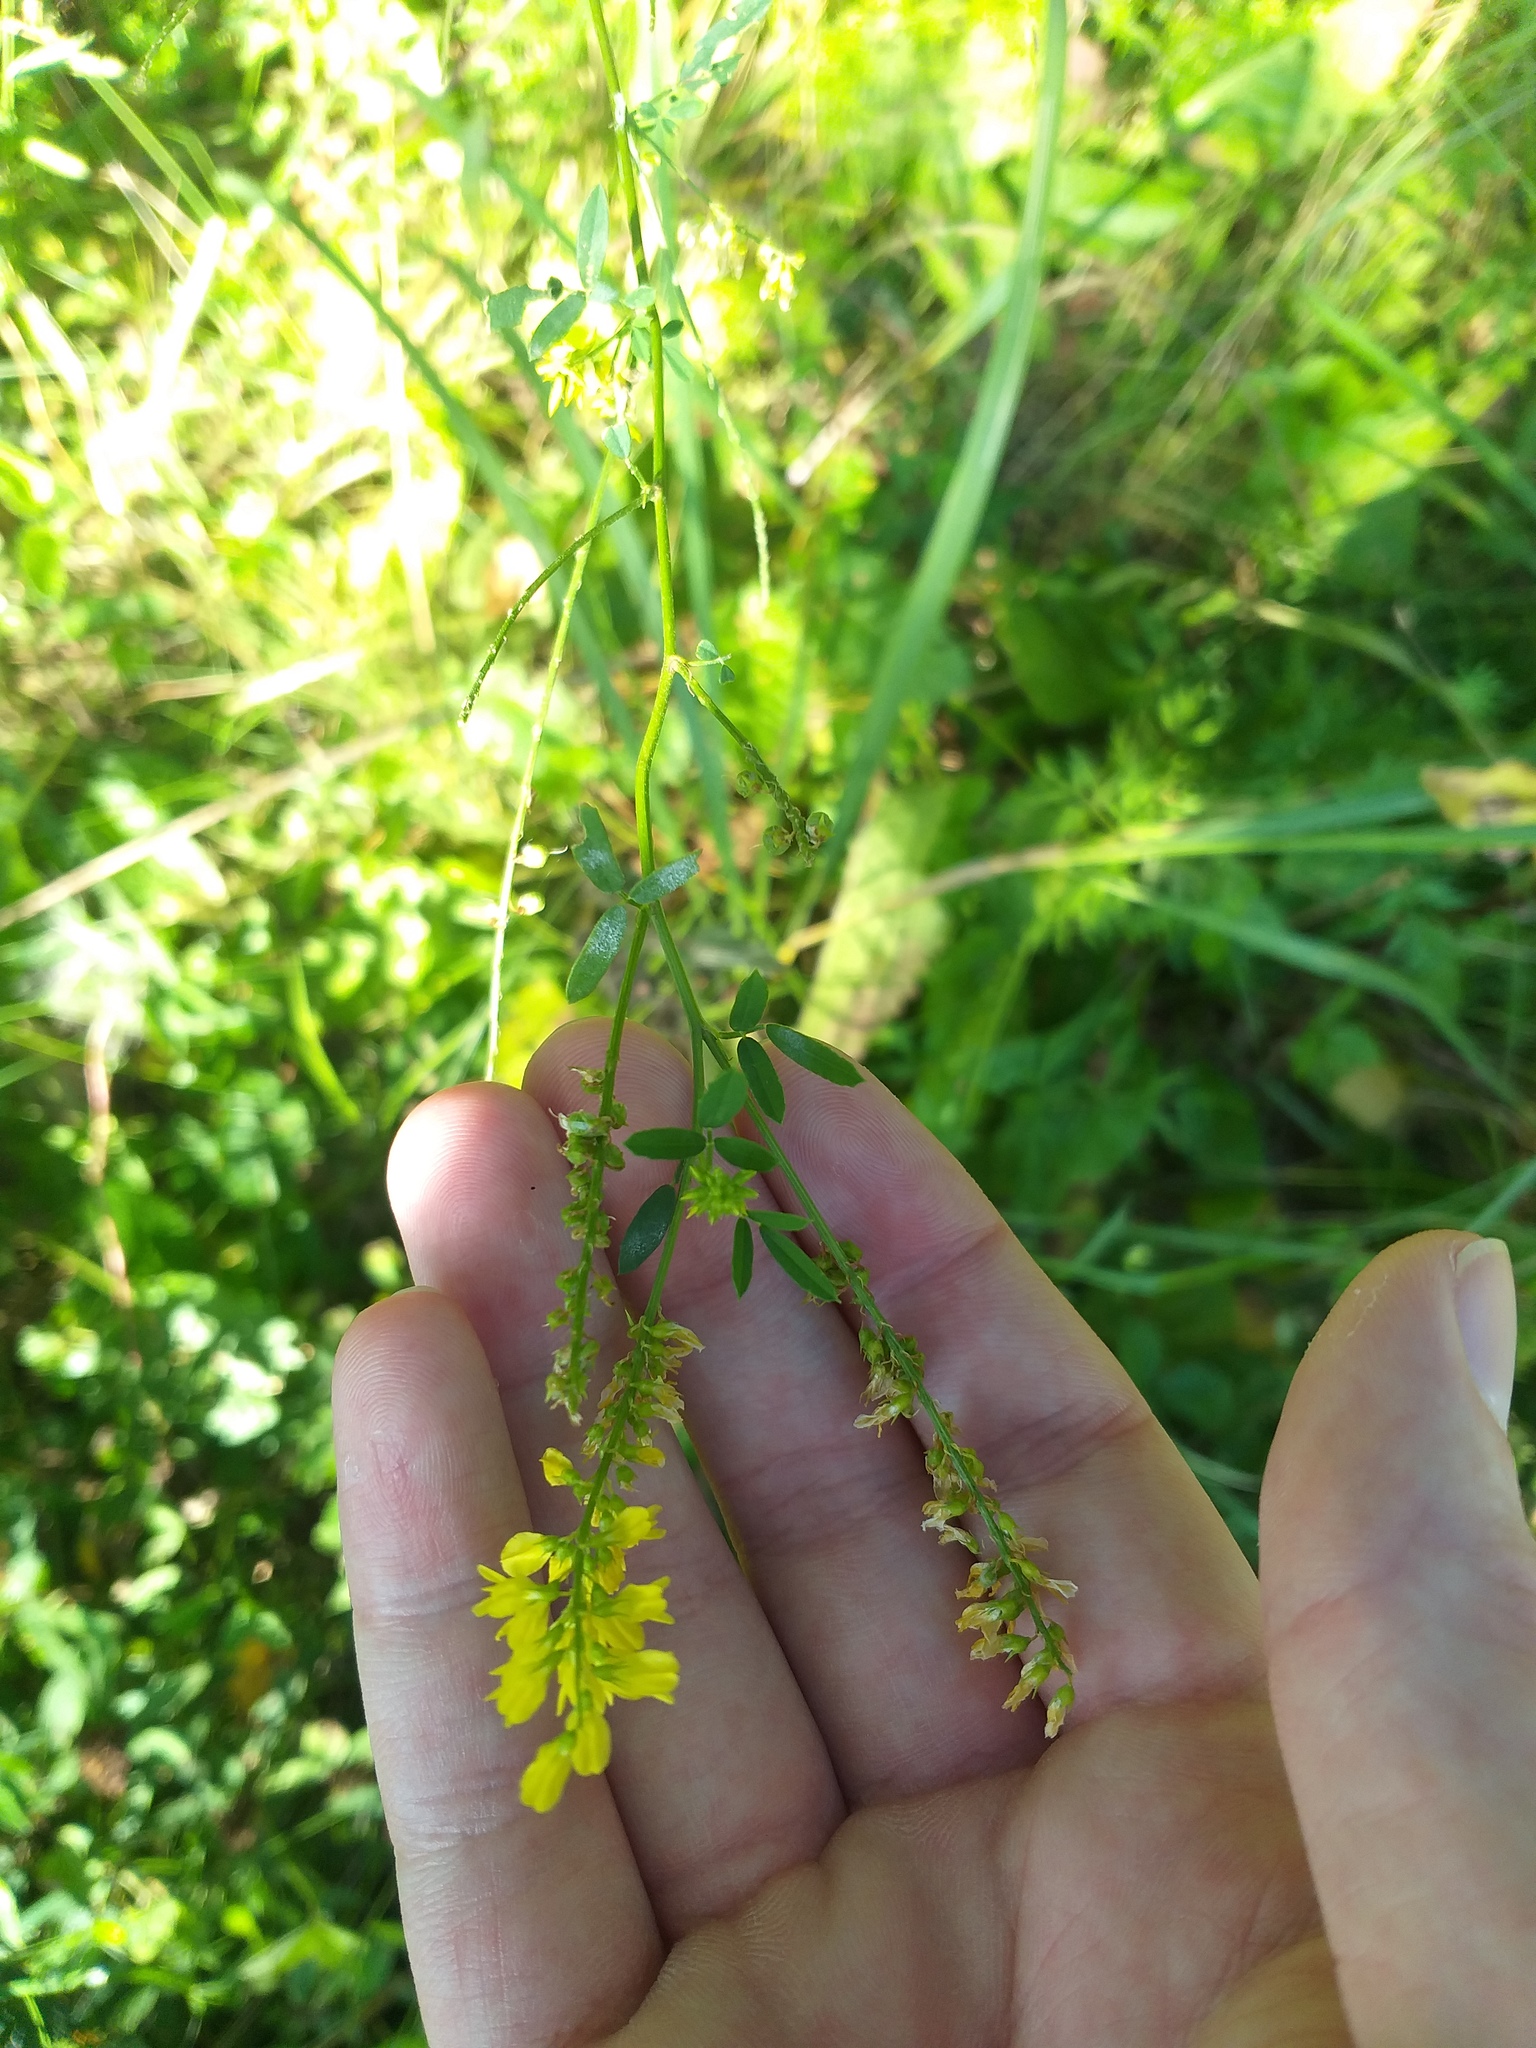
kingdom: Plantae
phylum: Tracheophyta
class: Magnoliopsida
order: Fabales
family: Fabaceae
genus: Melilotus
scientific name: Melilotus officinalis
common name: Sweetclover
